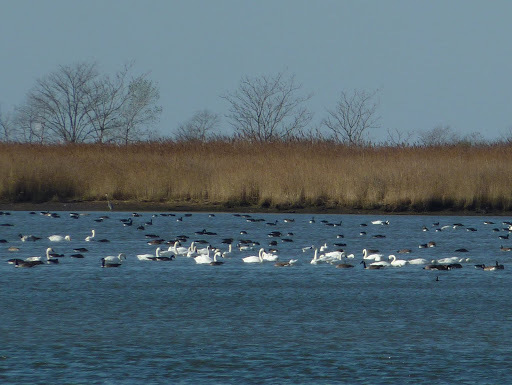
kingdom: Animalia
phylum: Chordata
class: Aves
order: Anseriformes
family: Anatidae
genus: Cygnus
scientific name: Cygnus columbianus
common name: Tundra swan
